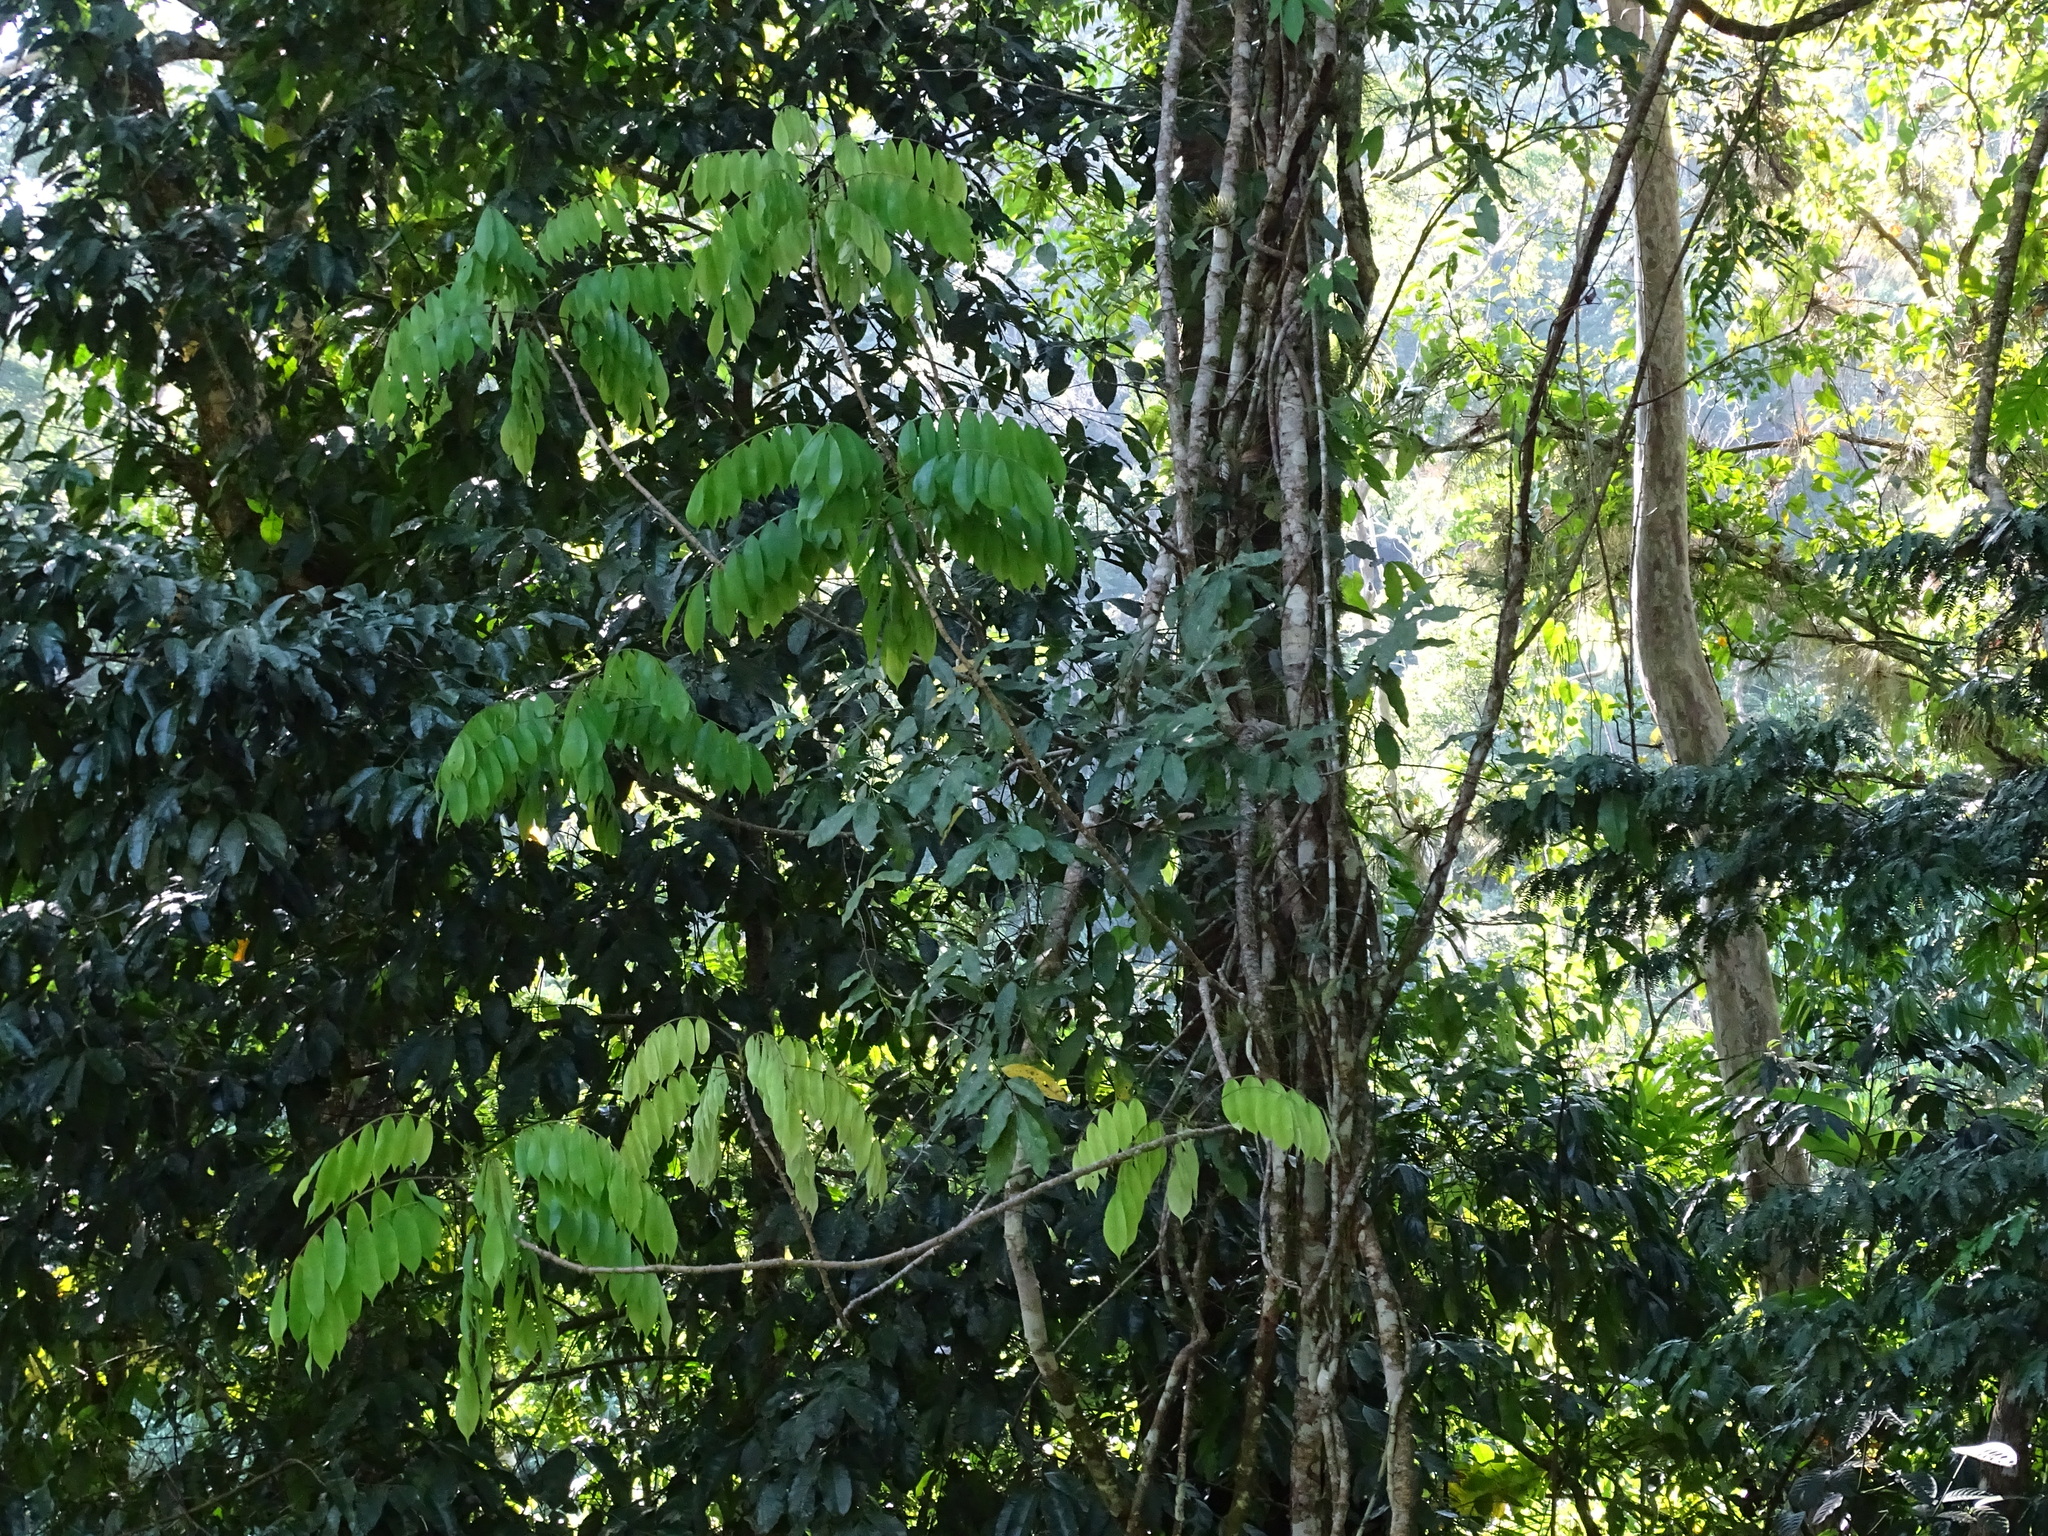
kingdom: Plantae
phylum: Tracheophyta
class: Magnoliopsida
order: Fabales
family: Fabaceae
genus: Machaerium
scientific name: Machaerium kegelii
